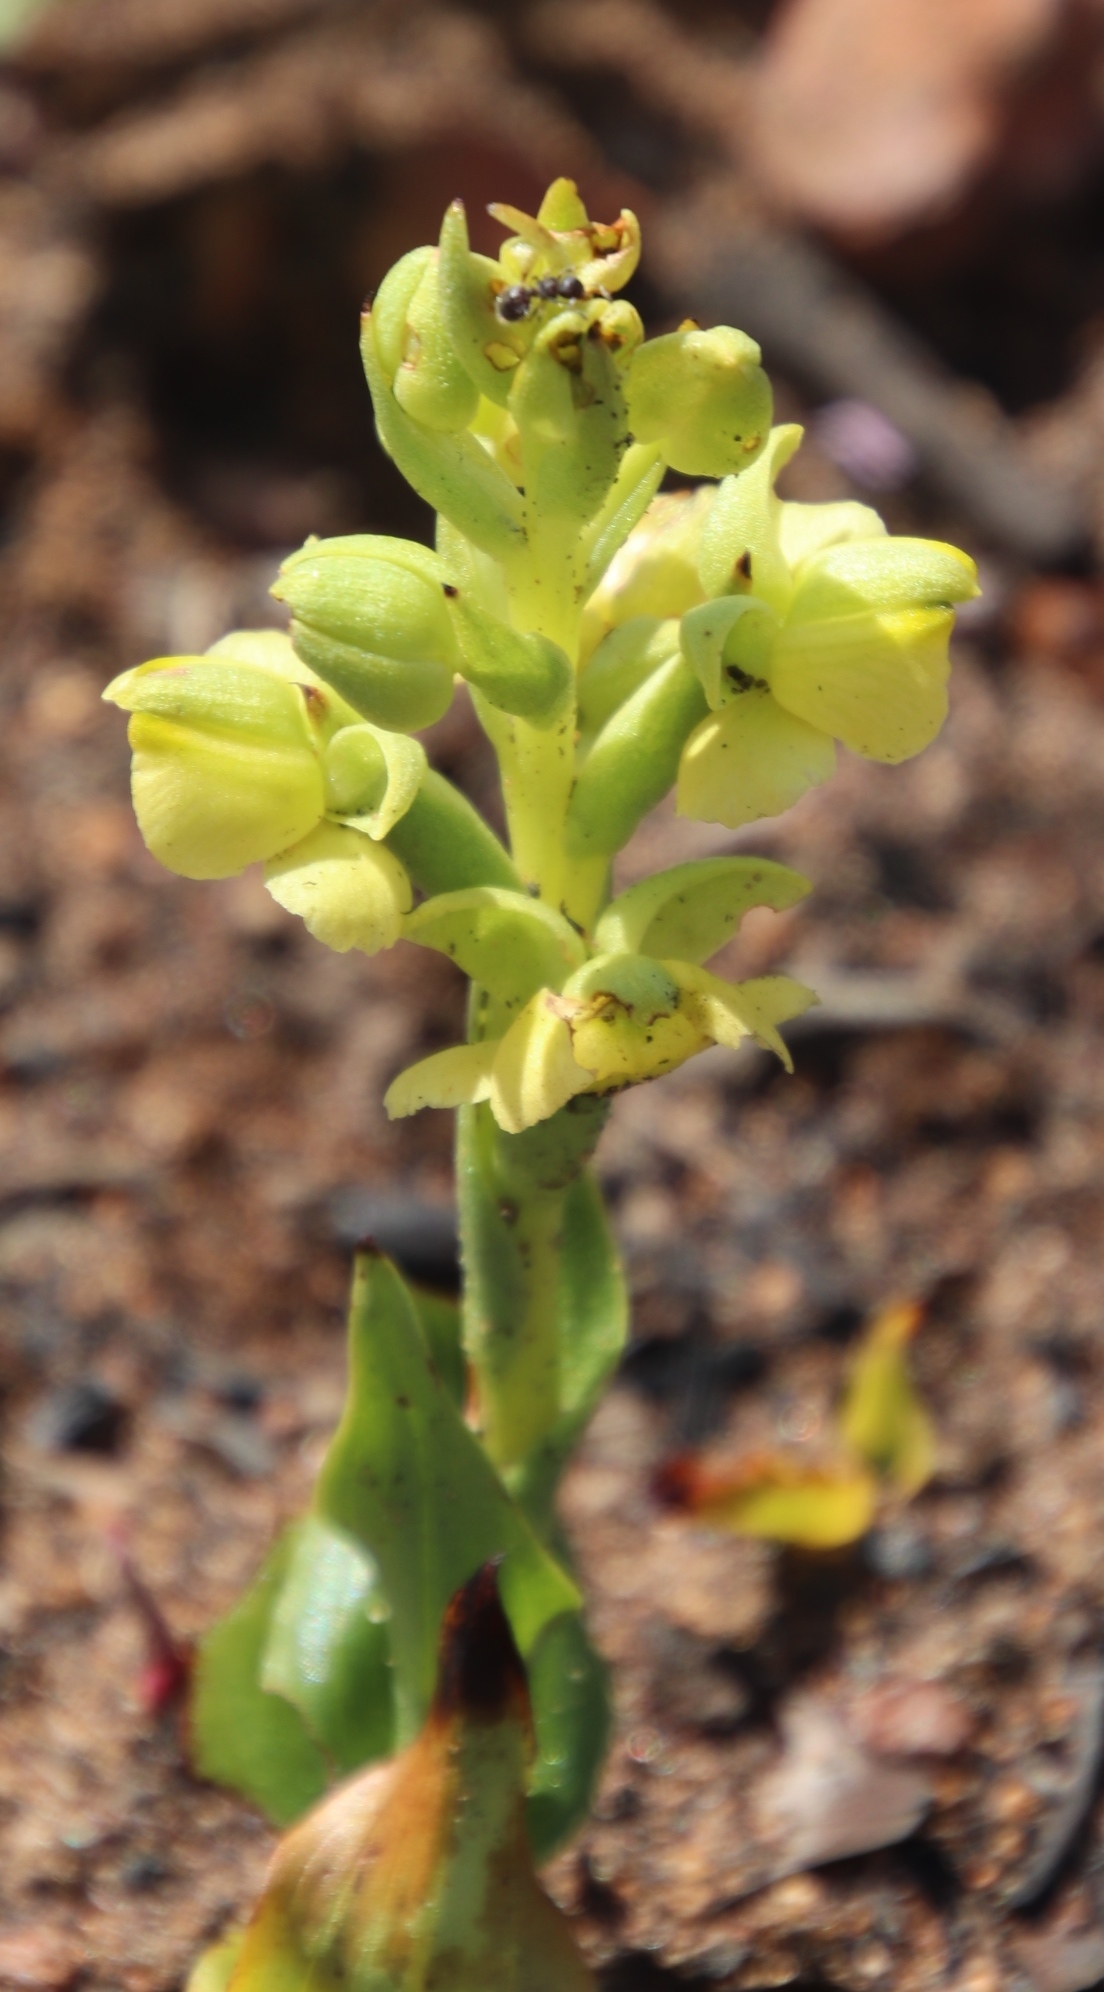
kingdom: Plantae
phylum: Tracheophyta
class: Liliopsida
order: Asparagales
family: Orchidaceae
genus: Pterygodium
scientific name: Pterygodium caffrum
